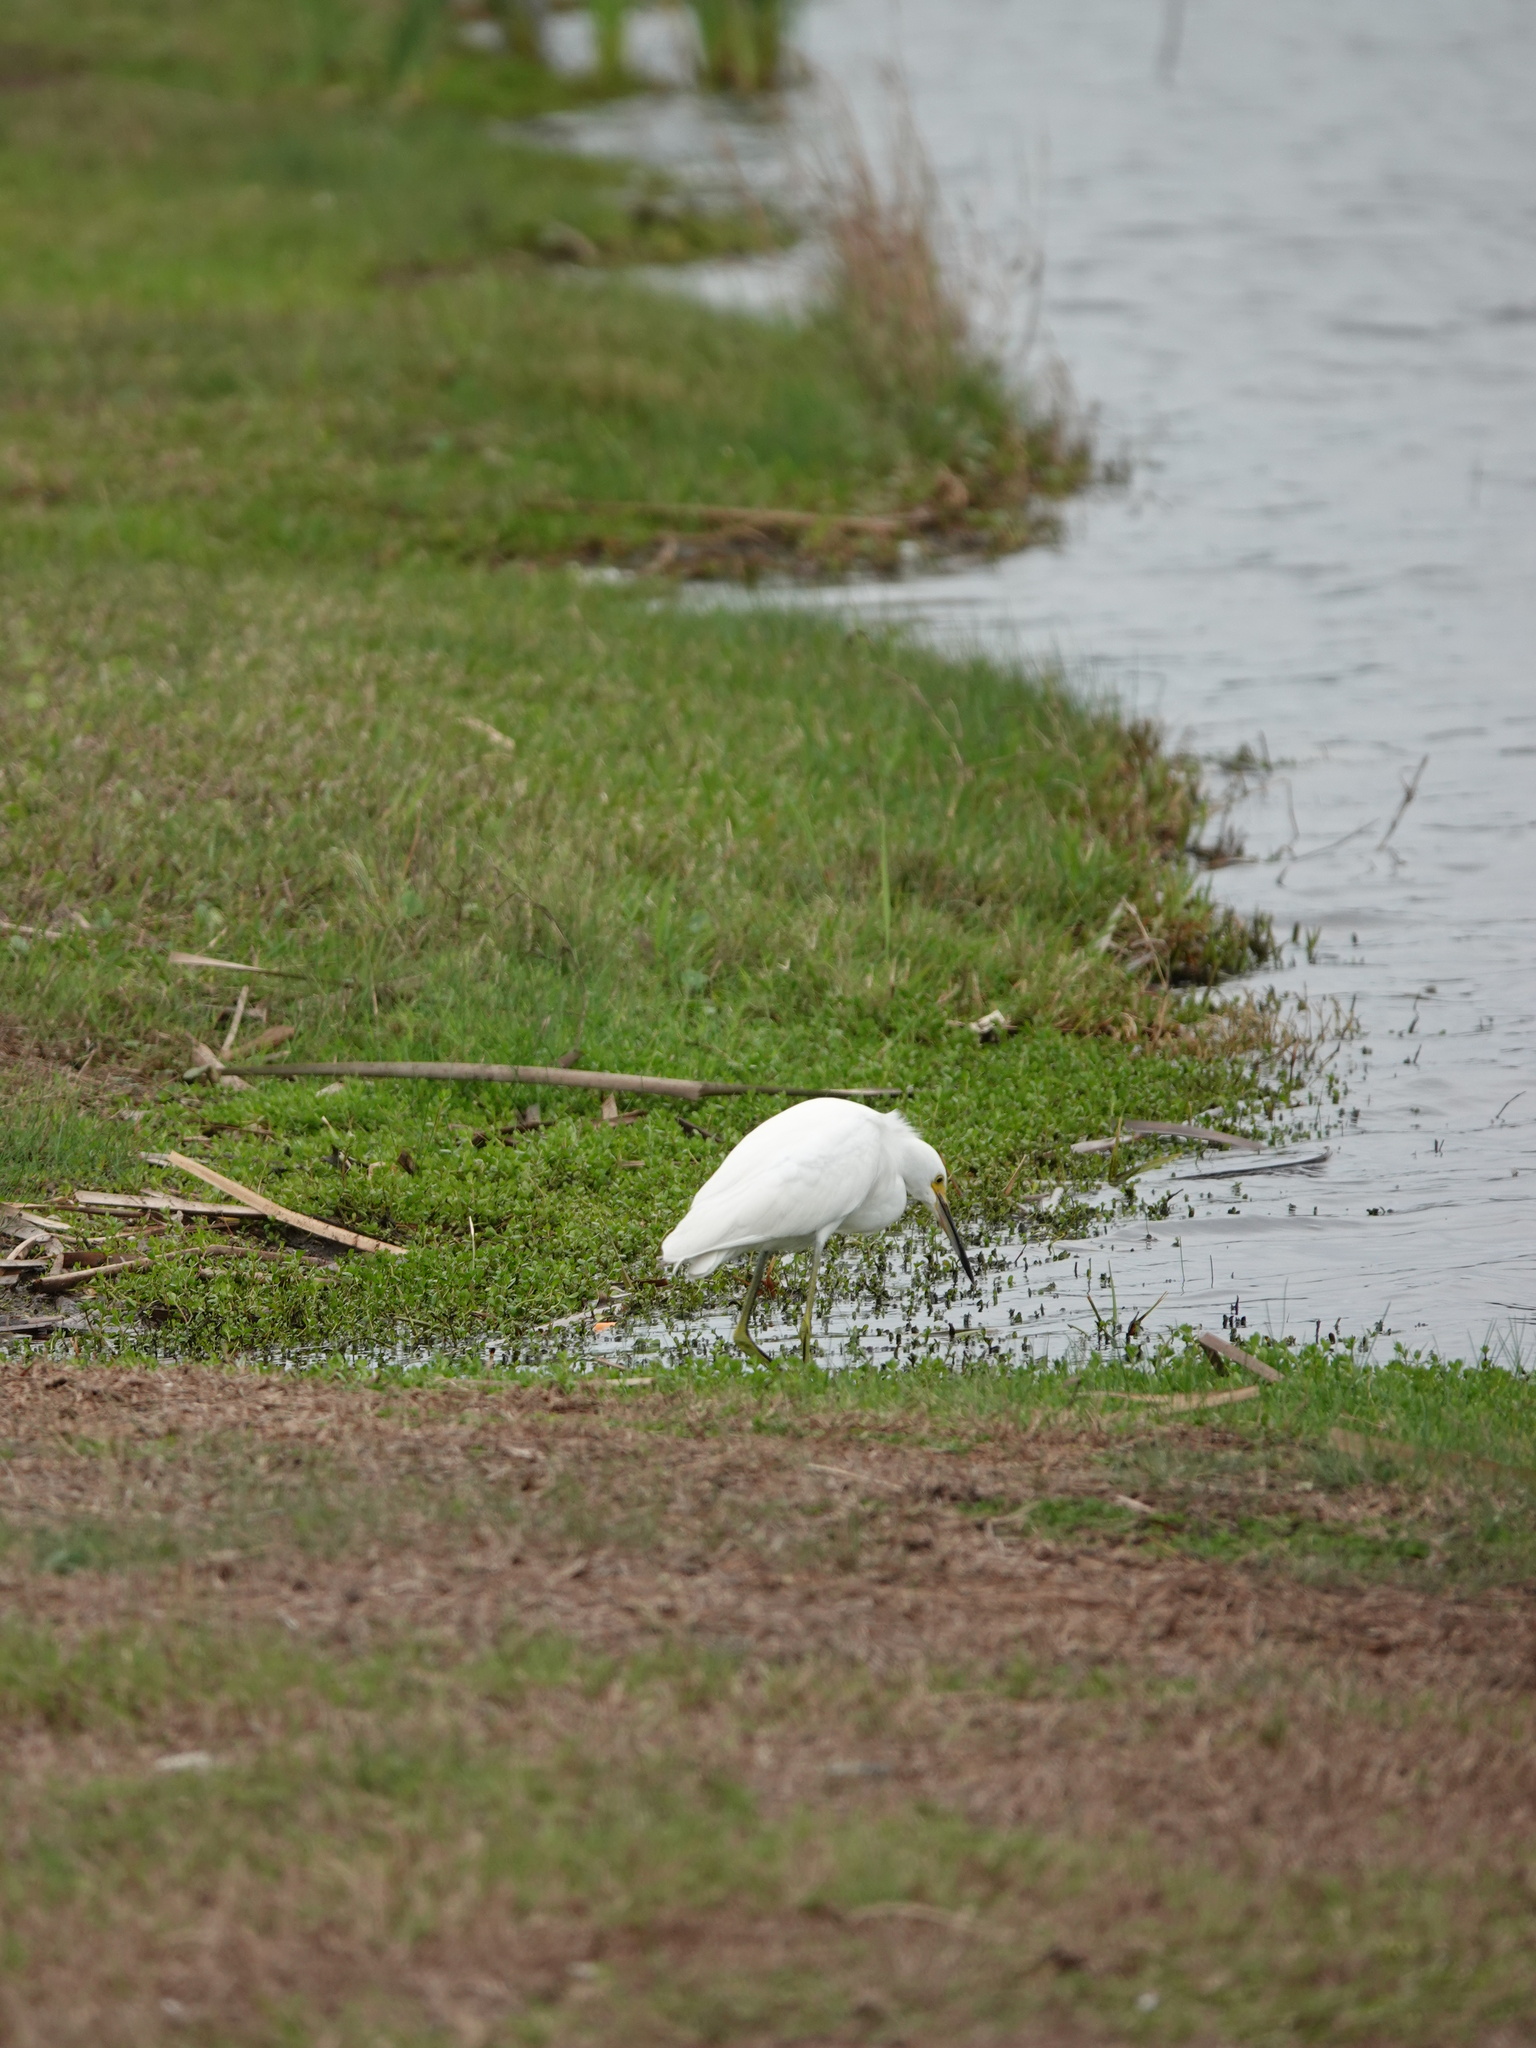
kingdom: Animalia
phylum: Chordata
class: Aves
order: Pelecaniformes
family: Ardeidae
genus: Egretta
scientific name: Egretta thula
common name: Snowy egret
